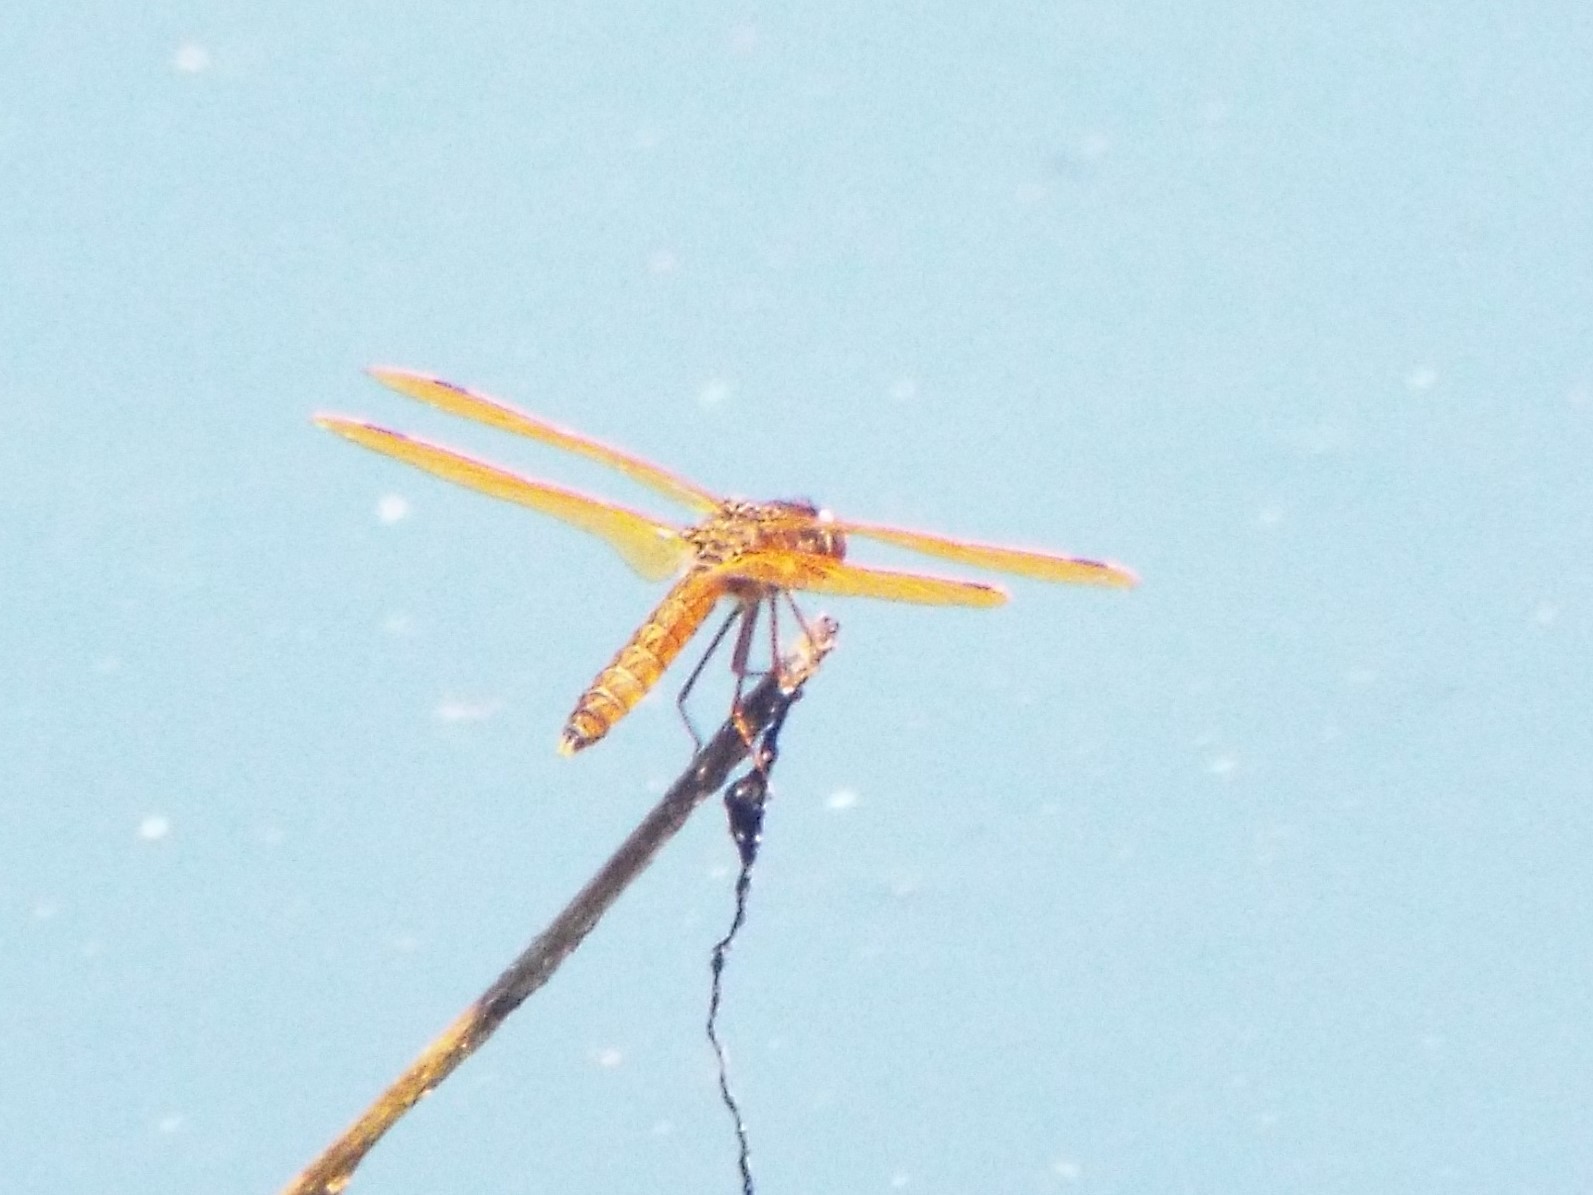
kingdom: Animalia
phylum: Arthropoda
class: Insecta
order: Odonata
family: Libellulidae
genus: Perithemis
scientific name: Perithemis tenera
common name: Eastern amberwing
